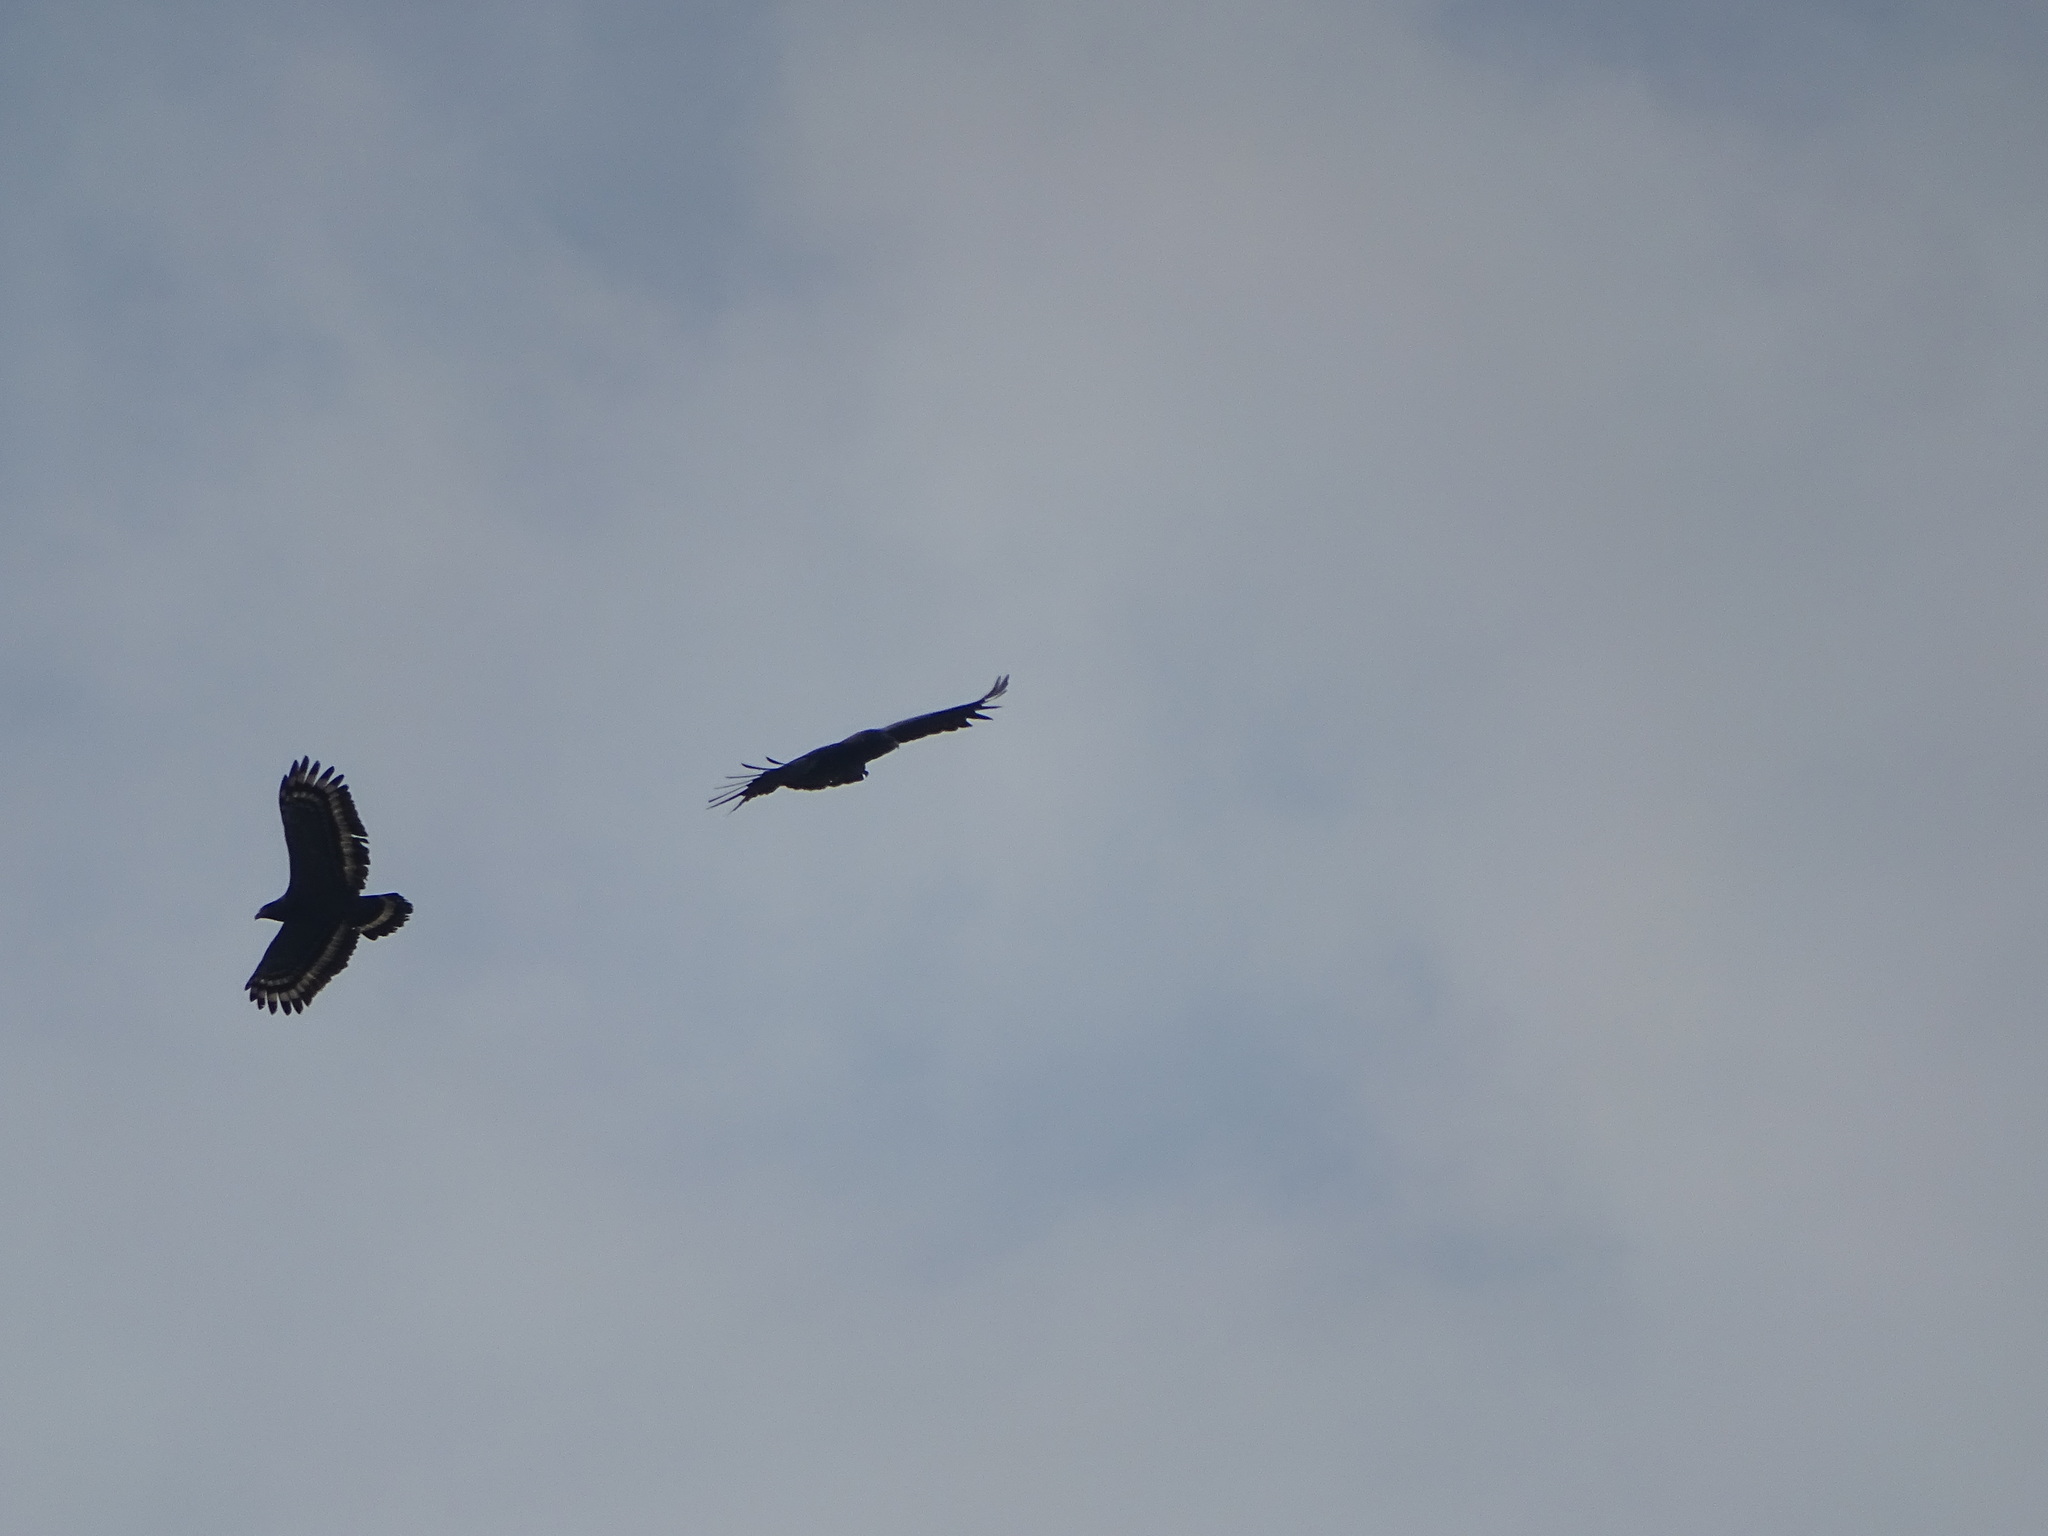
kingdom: Animalia
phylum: Chordata
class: Aves
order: Accipitriformes
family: Accipitridae
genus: Spilornis
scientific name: Spilornis cheela
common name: Crested serpent eagle
